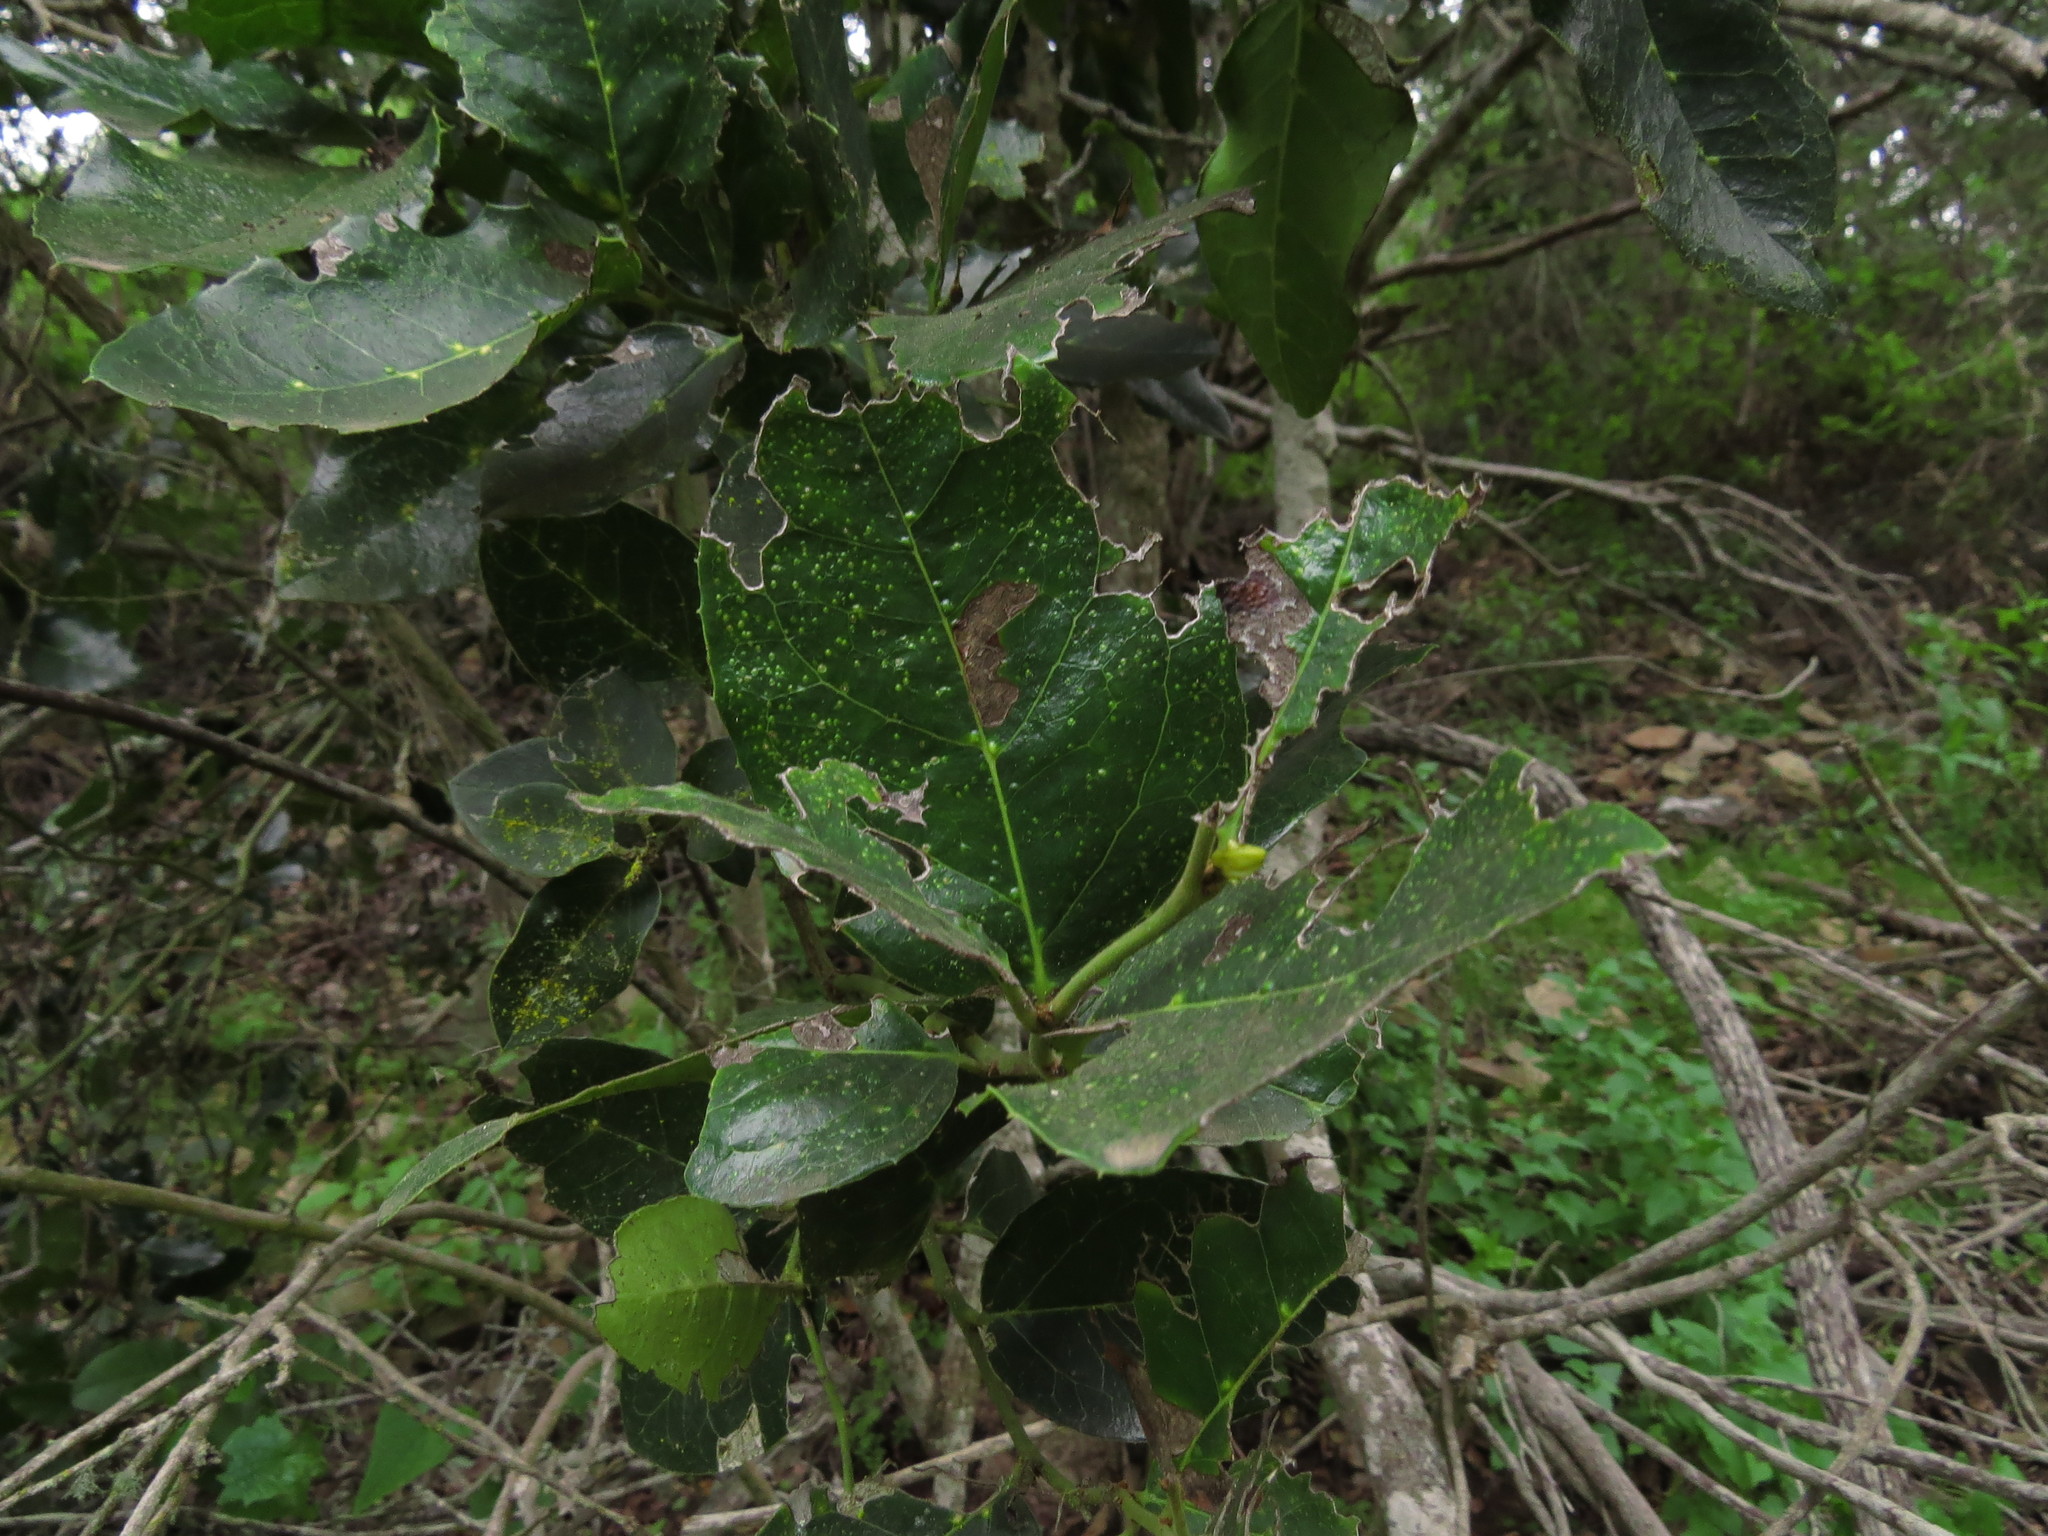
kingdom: Plantae
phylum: Tracheophyta
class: Magnoliopsida
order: Cardiopteridales
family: Cardiopteridaceae
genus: Citronella
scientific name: Citronella mucronata
